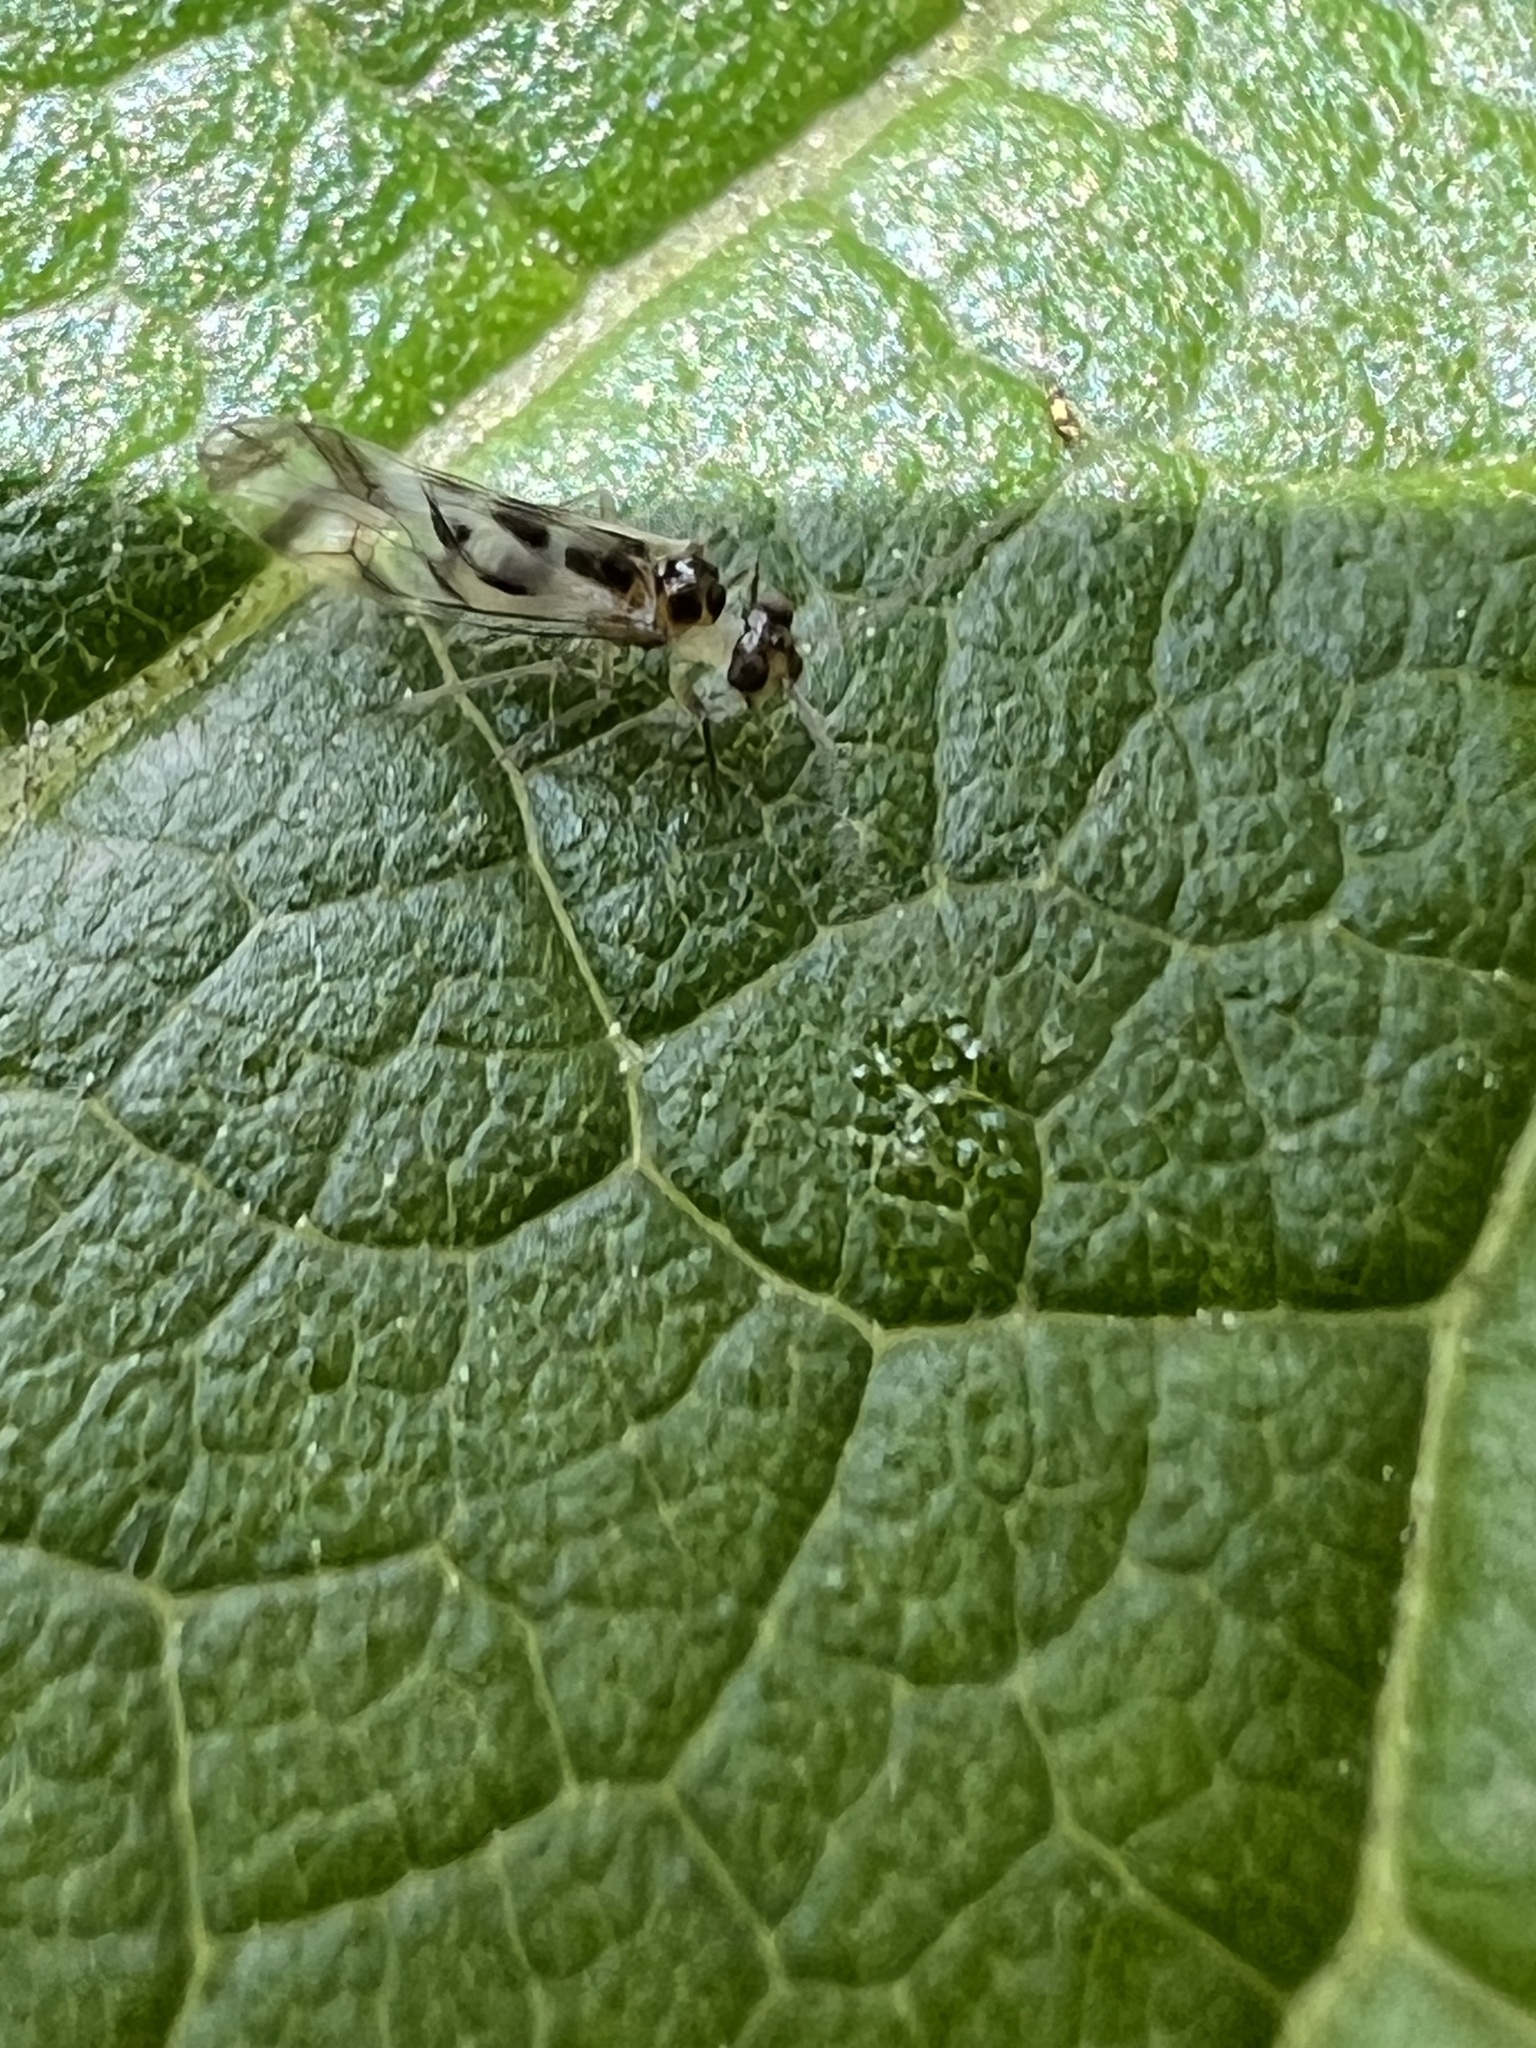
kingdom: Animalia
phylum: Arthropoda
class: Insecta
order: Psocodea
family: Stenopsocidae
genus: Graphopsocus
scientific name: Graphopsocus cruciatus
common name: Lizard bark louse
